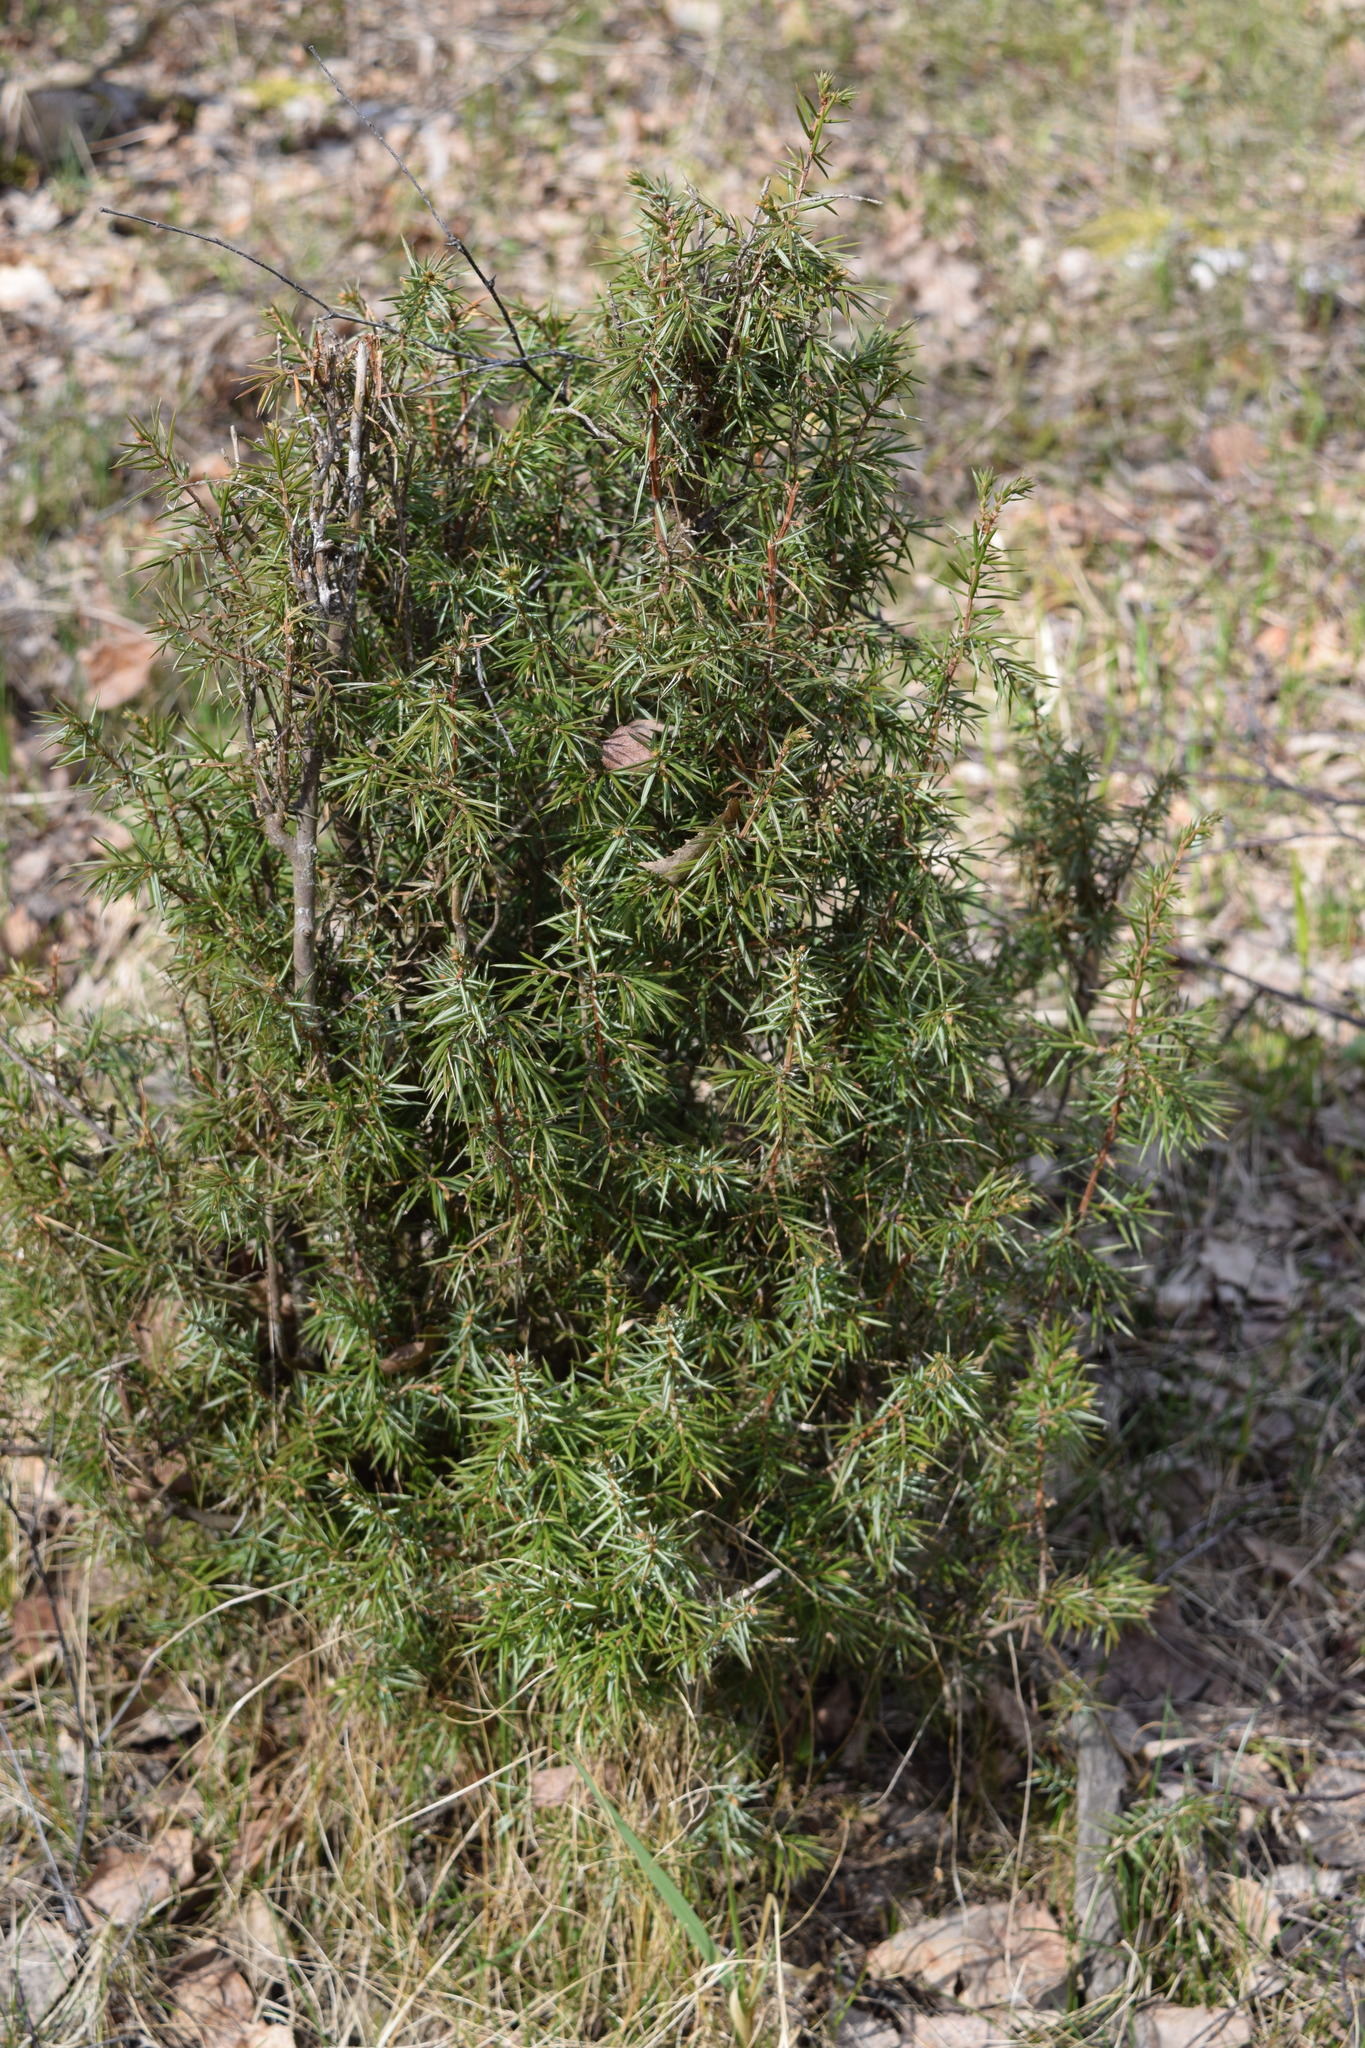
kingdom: Plantae
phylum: Tracheophyta
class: Pinopsida
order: Pinales
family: Cupressaceae
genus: Juniperus
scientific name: Juniperus communis
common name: Common juniper
